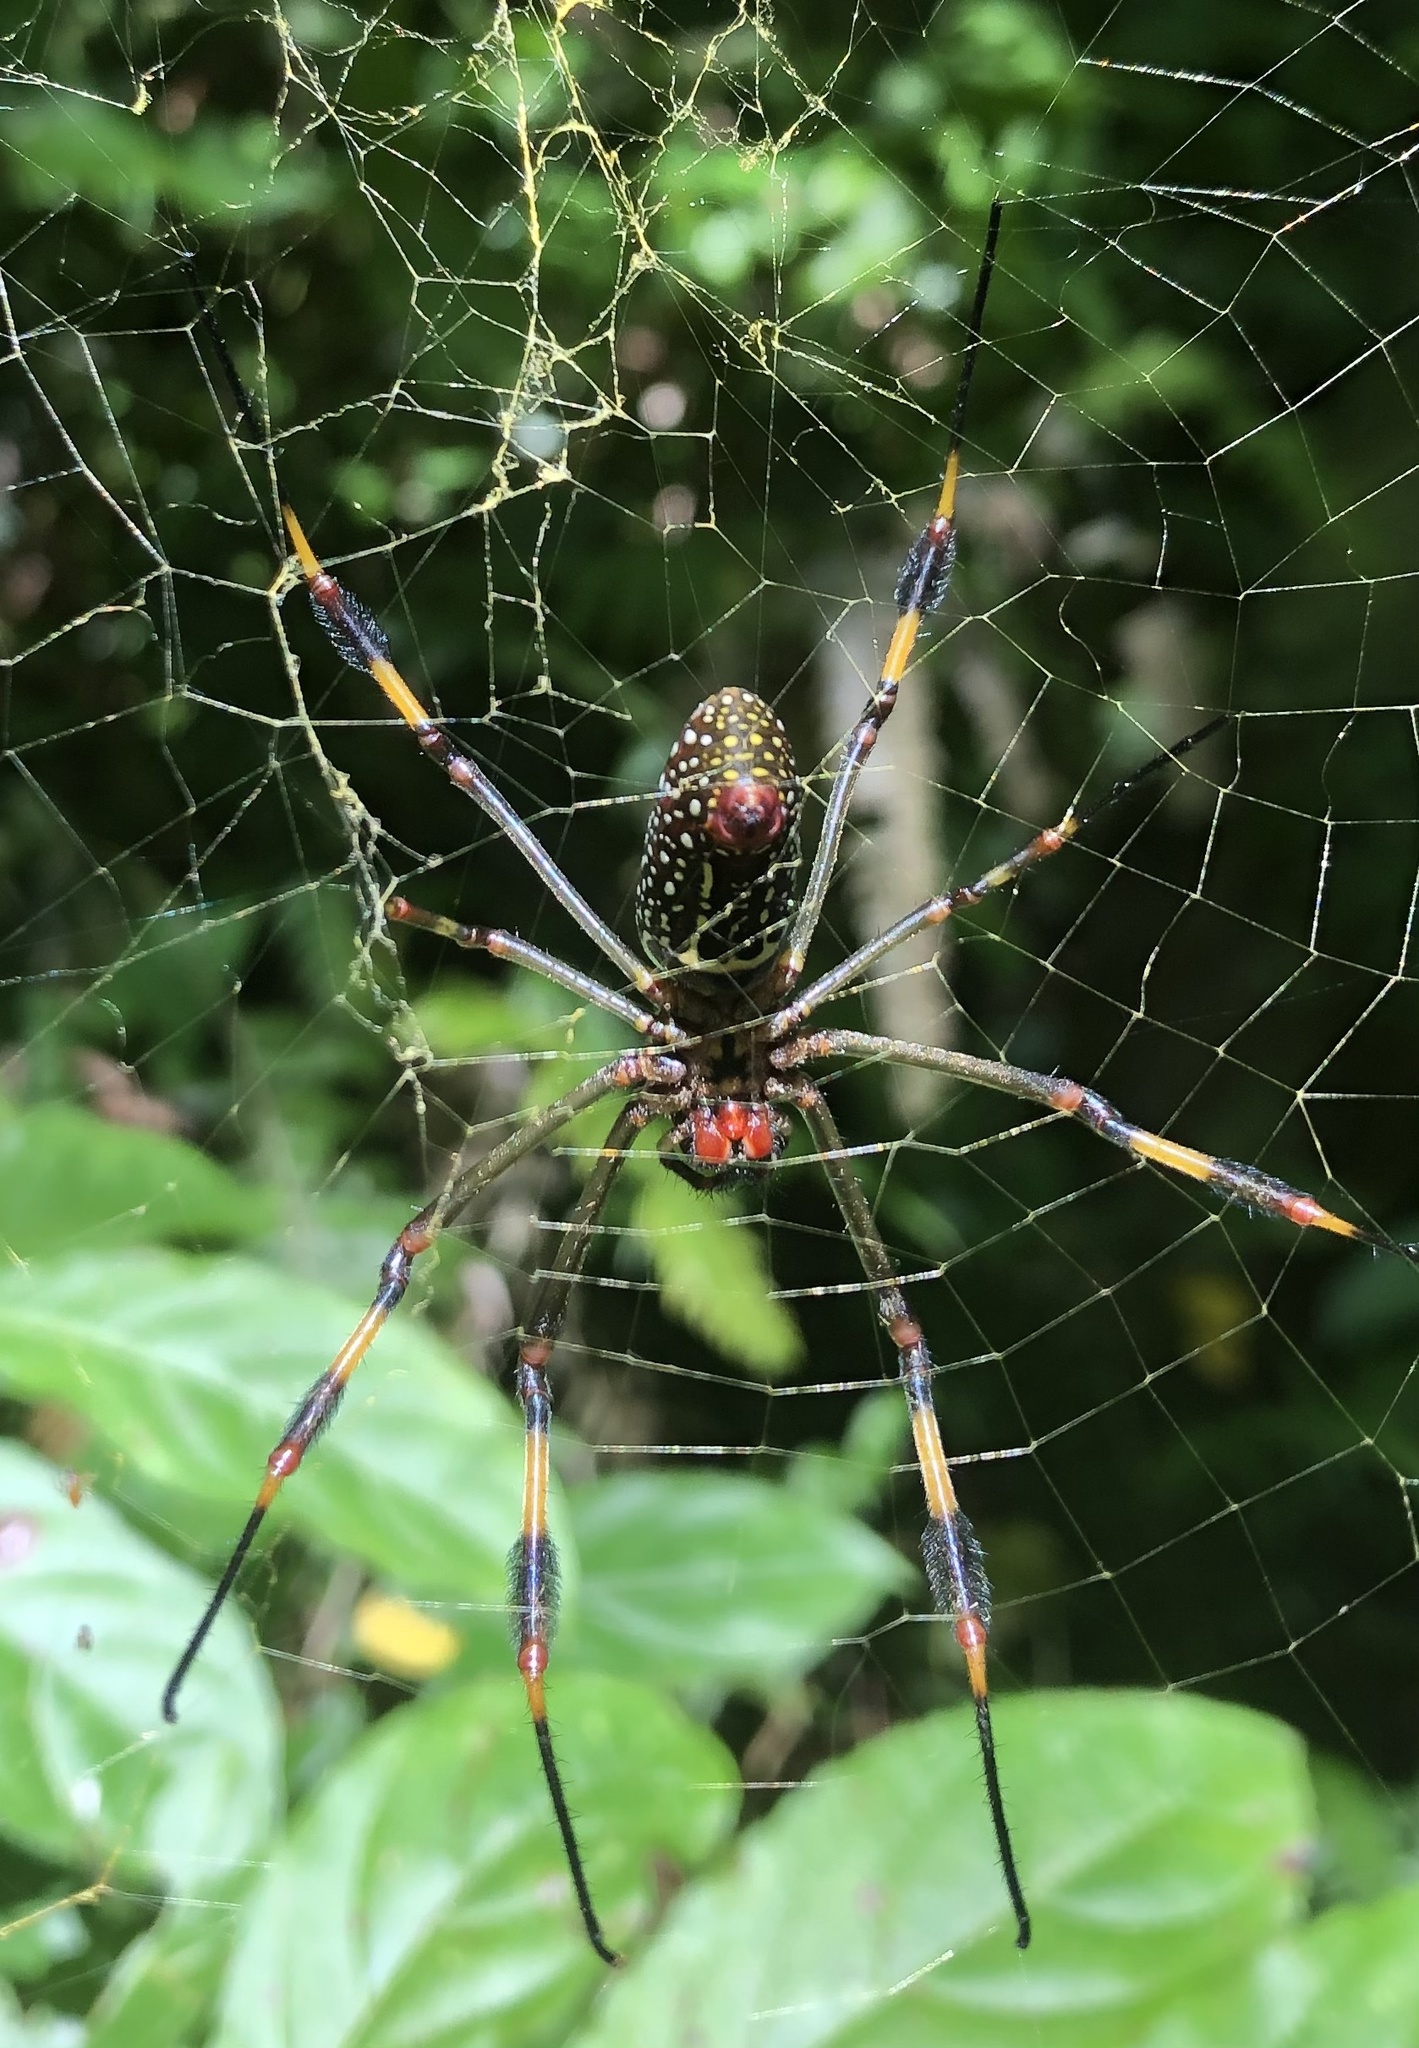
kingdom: Animalia
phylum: Arthropoda
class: Arachnida
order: Araneae
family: Araneidae
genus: Trichonephila
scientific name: Trichonephila clavipes
